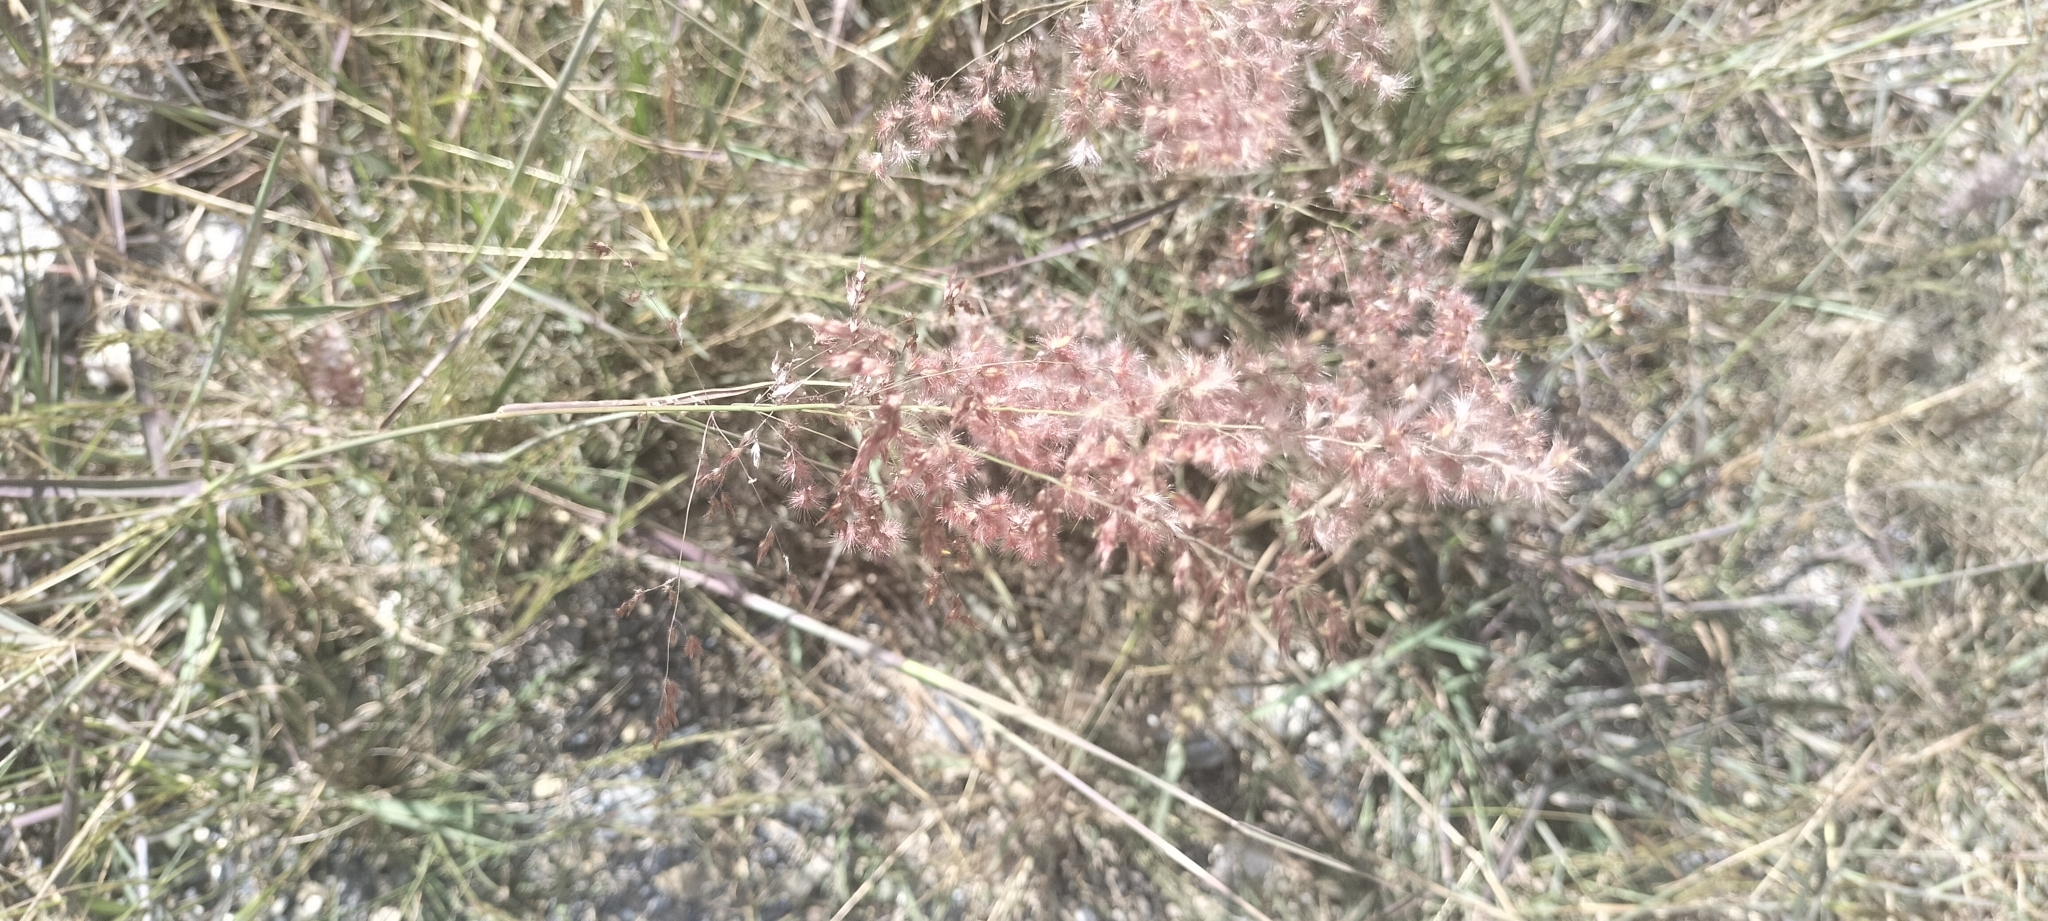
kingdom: Plantae
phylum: Tracheophyta
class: Liliopsida
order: Poales
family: Poaceae
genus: Melinis
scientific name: Melinis repens
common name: Rose natal grass
